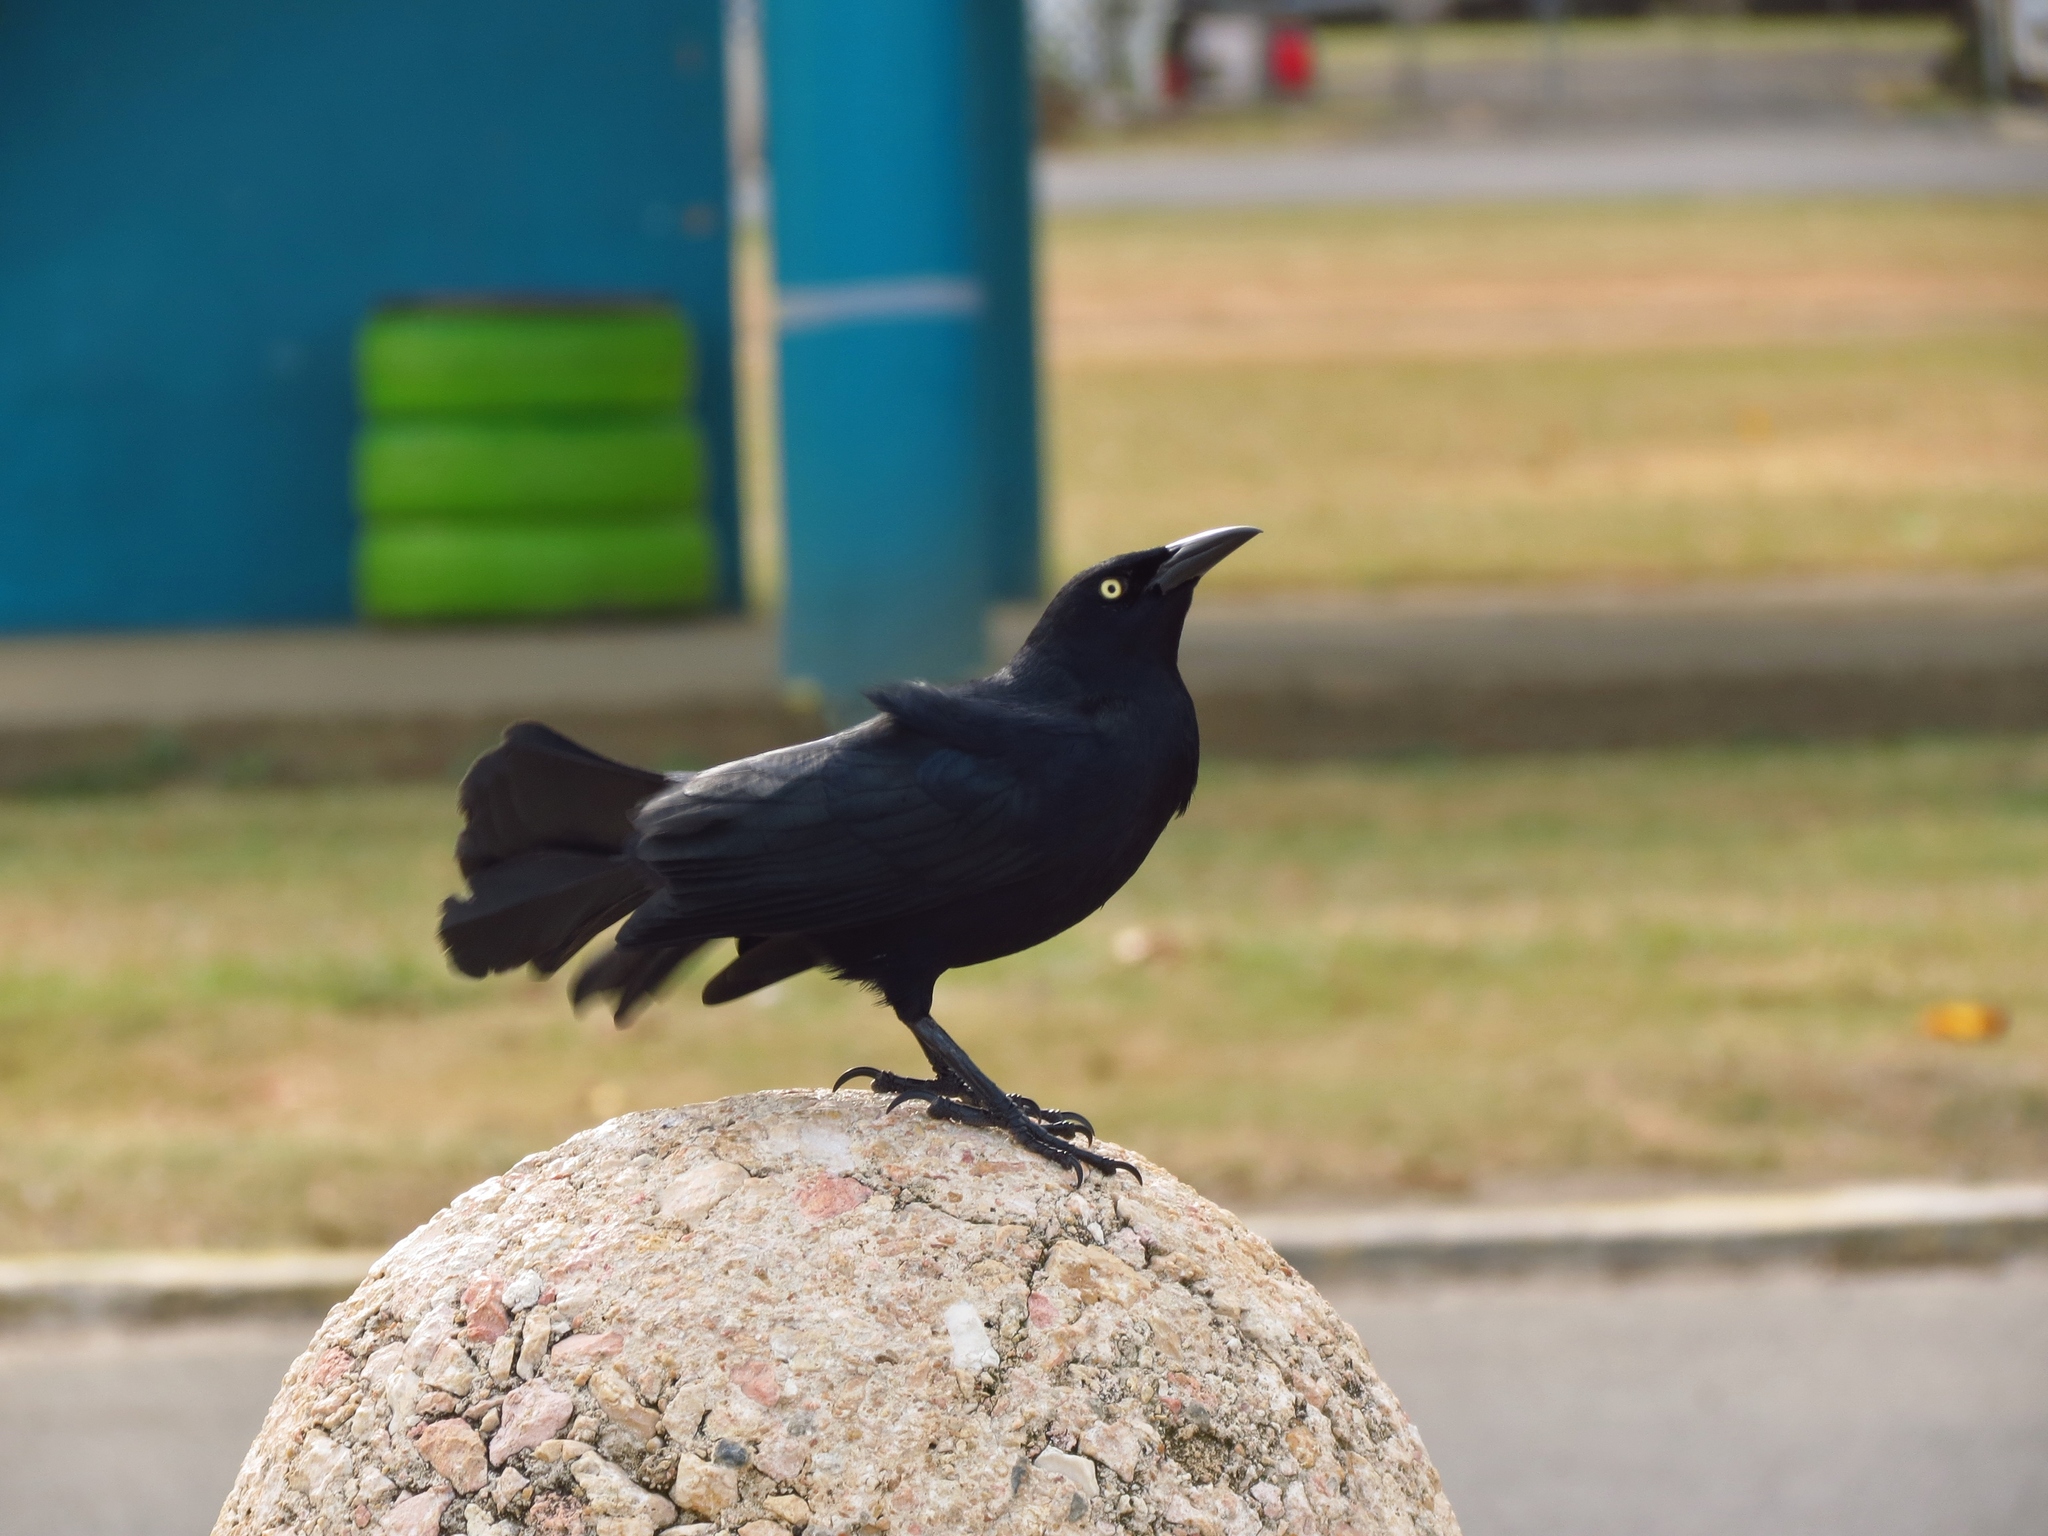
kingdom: Animalia
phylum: Chordata
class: Aves
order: Passeriformes
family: Icteridae
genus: Quiscalus
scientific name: Quiscalus niger
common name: Greater antillean grackle
